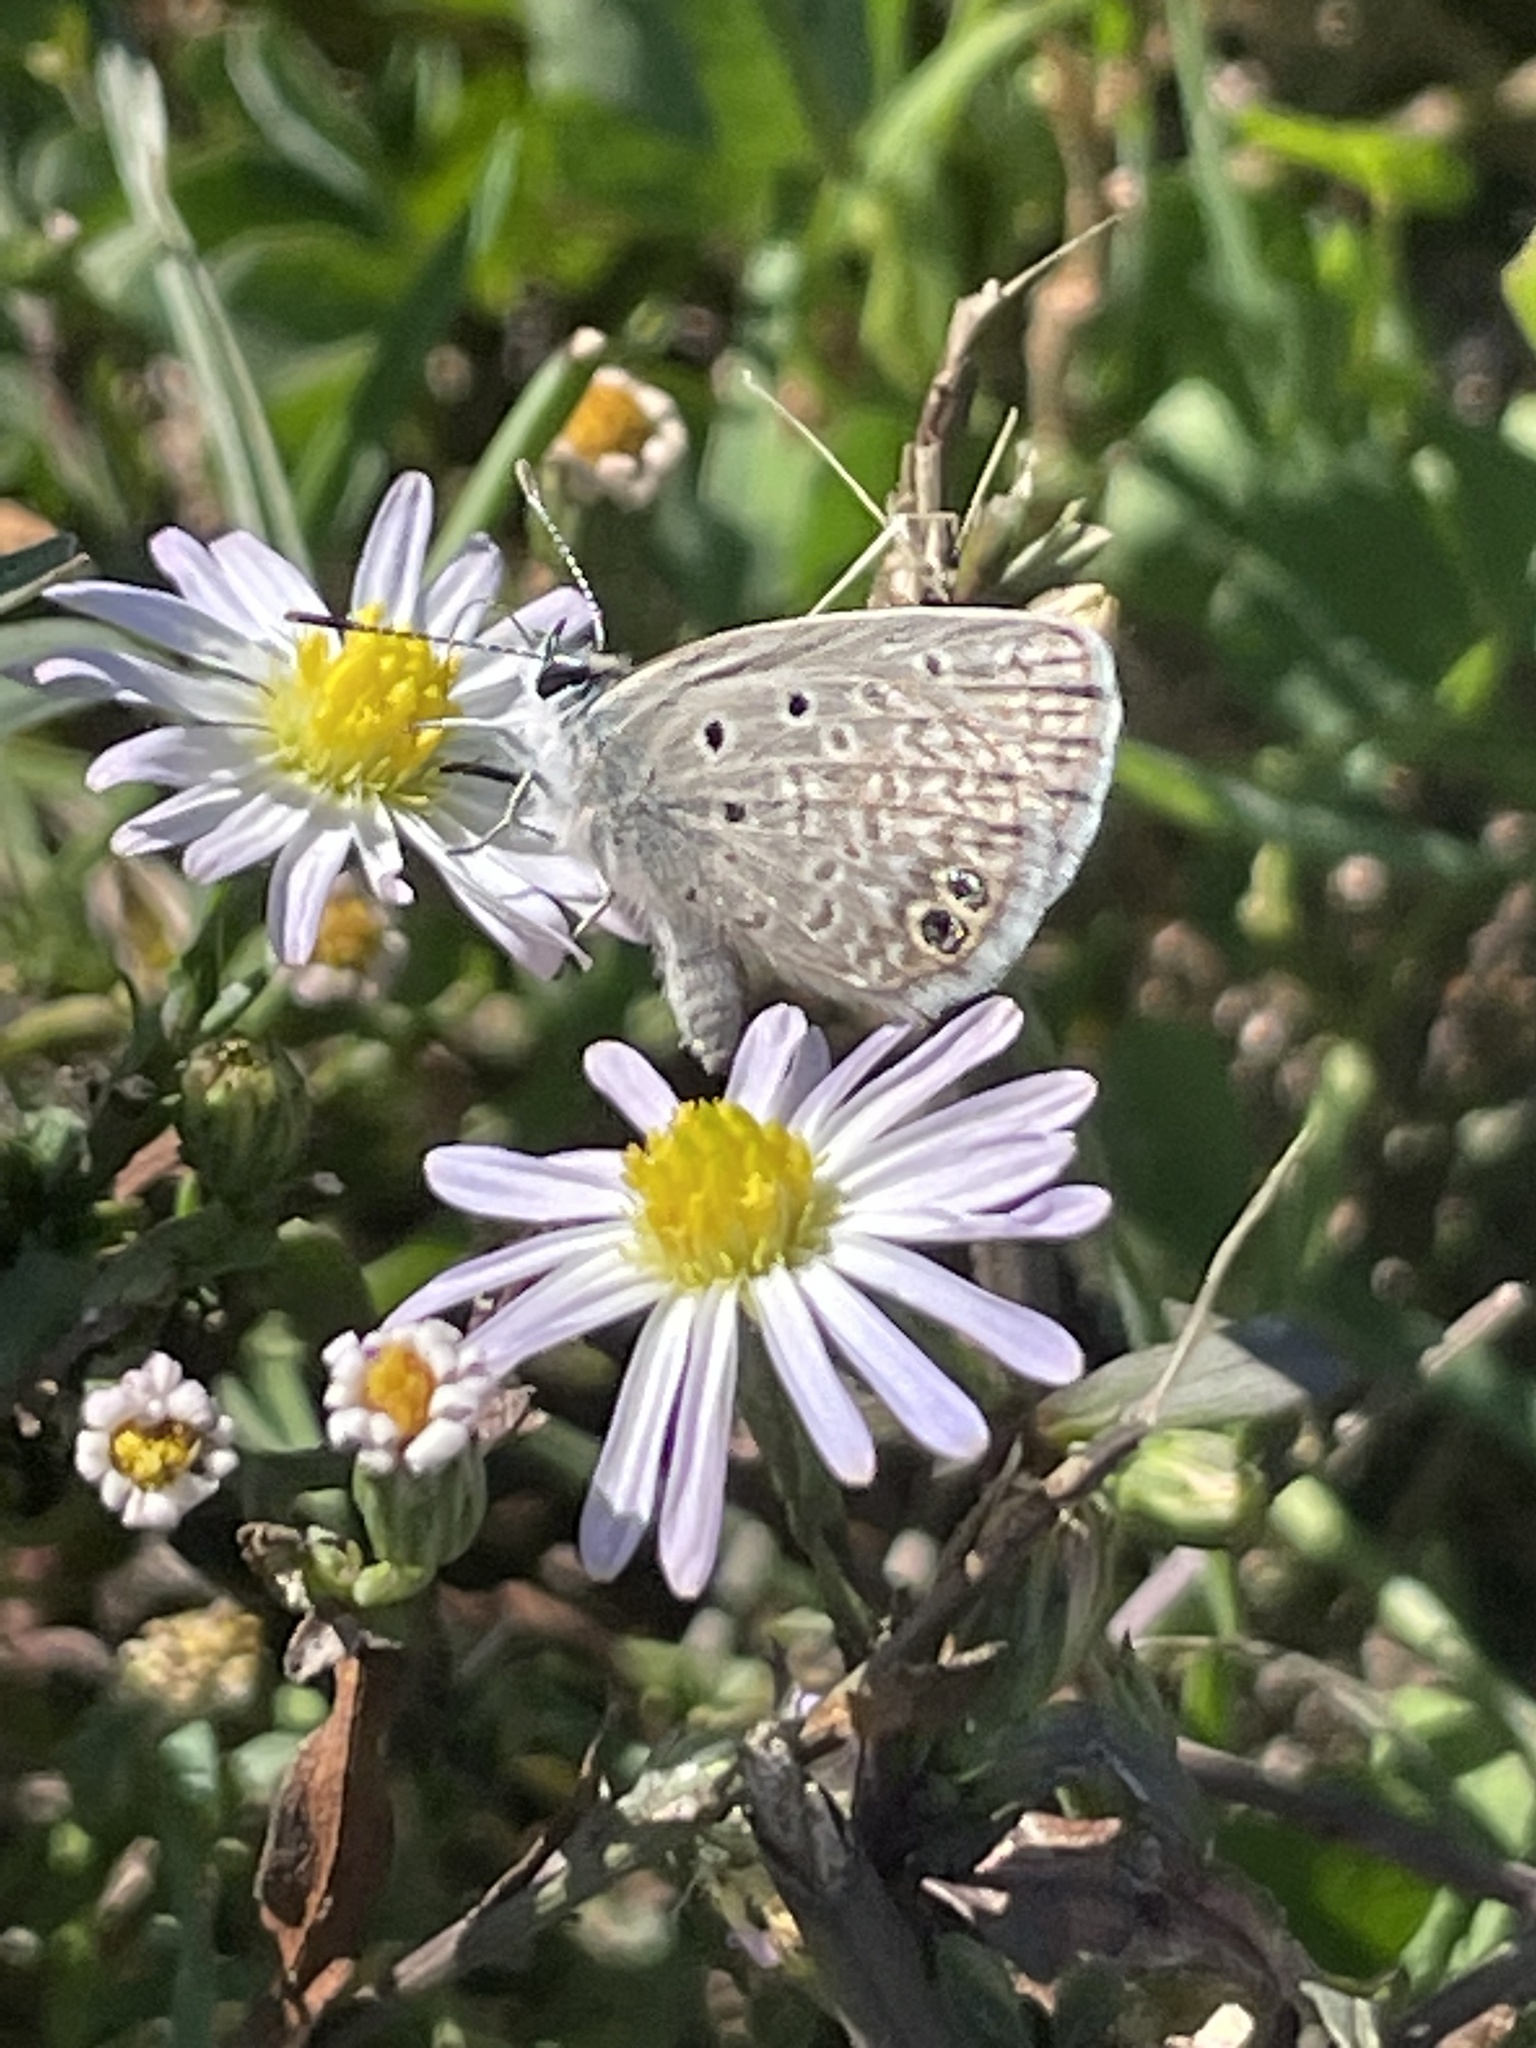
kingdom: Animalia
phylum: Arthropoda
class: Insecta
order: Lepidoptera
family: Lycaenidae
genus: Hemiargus
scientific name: Hemiargus ceraunus
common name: Ceraunus blue
